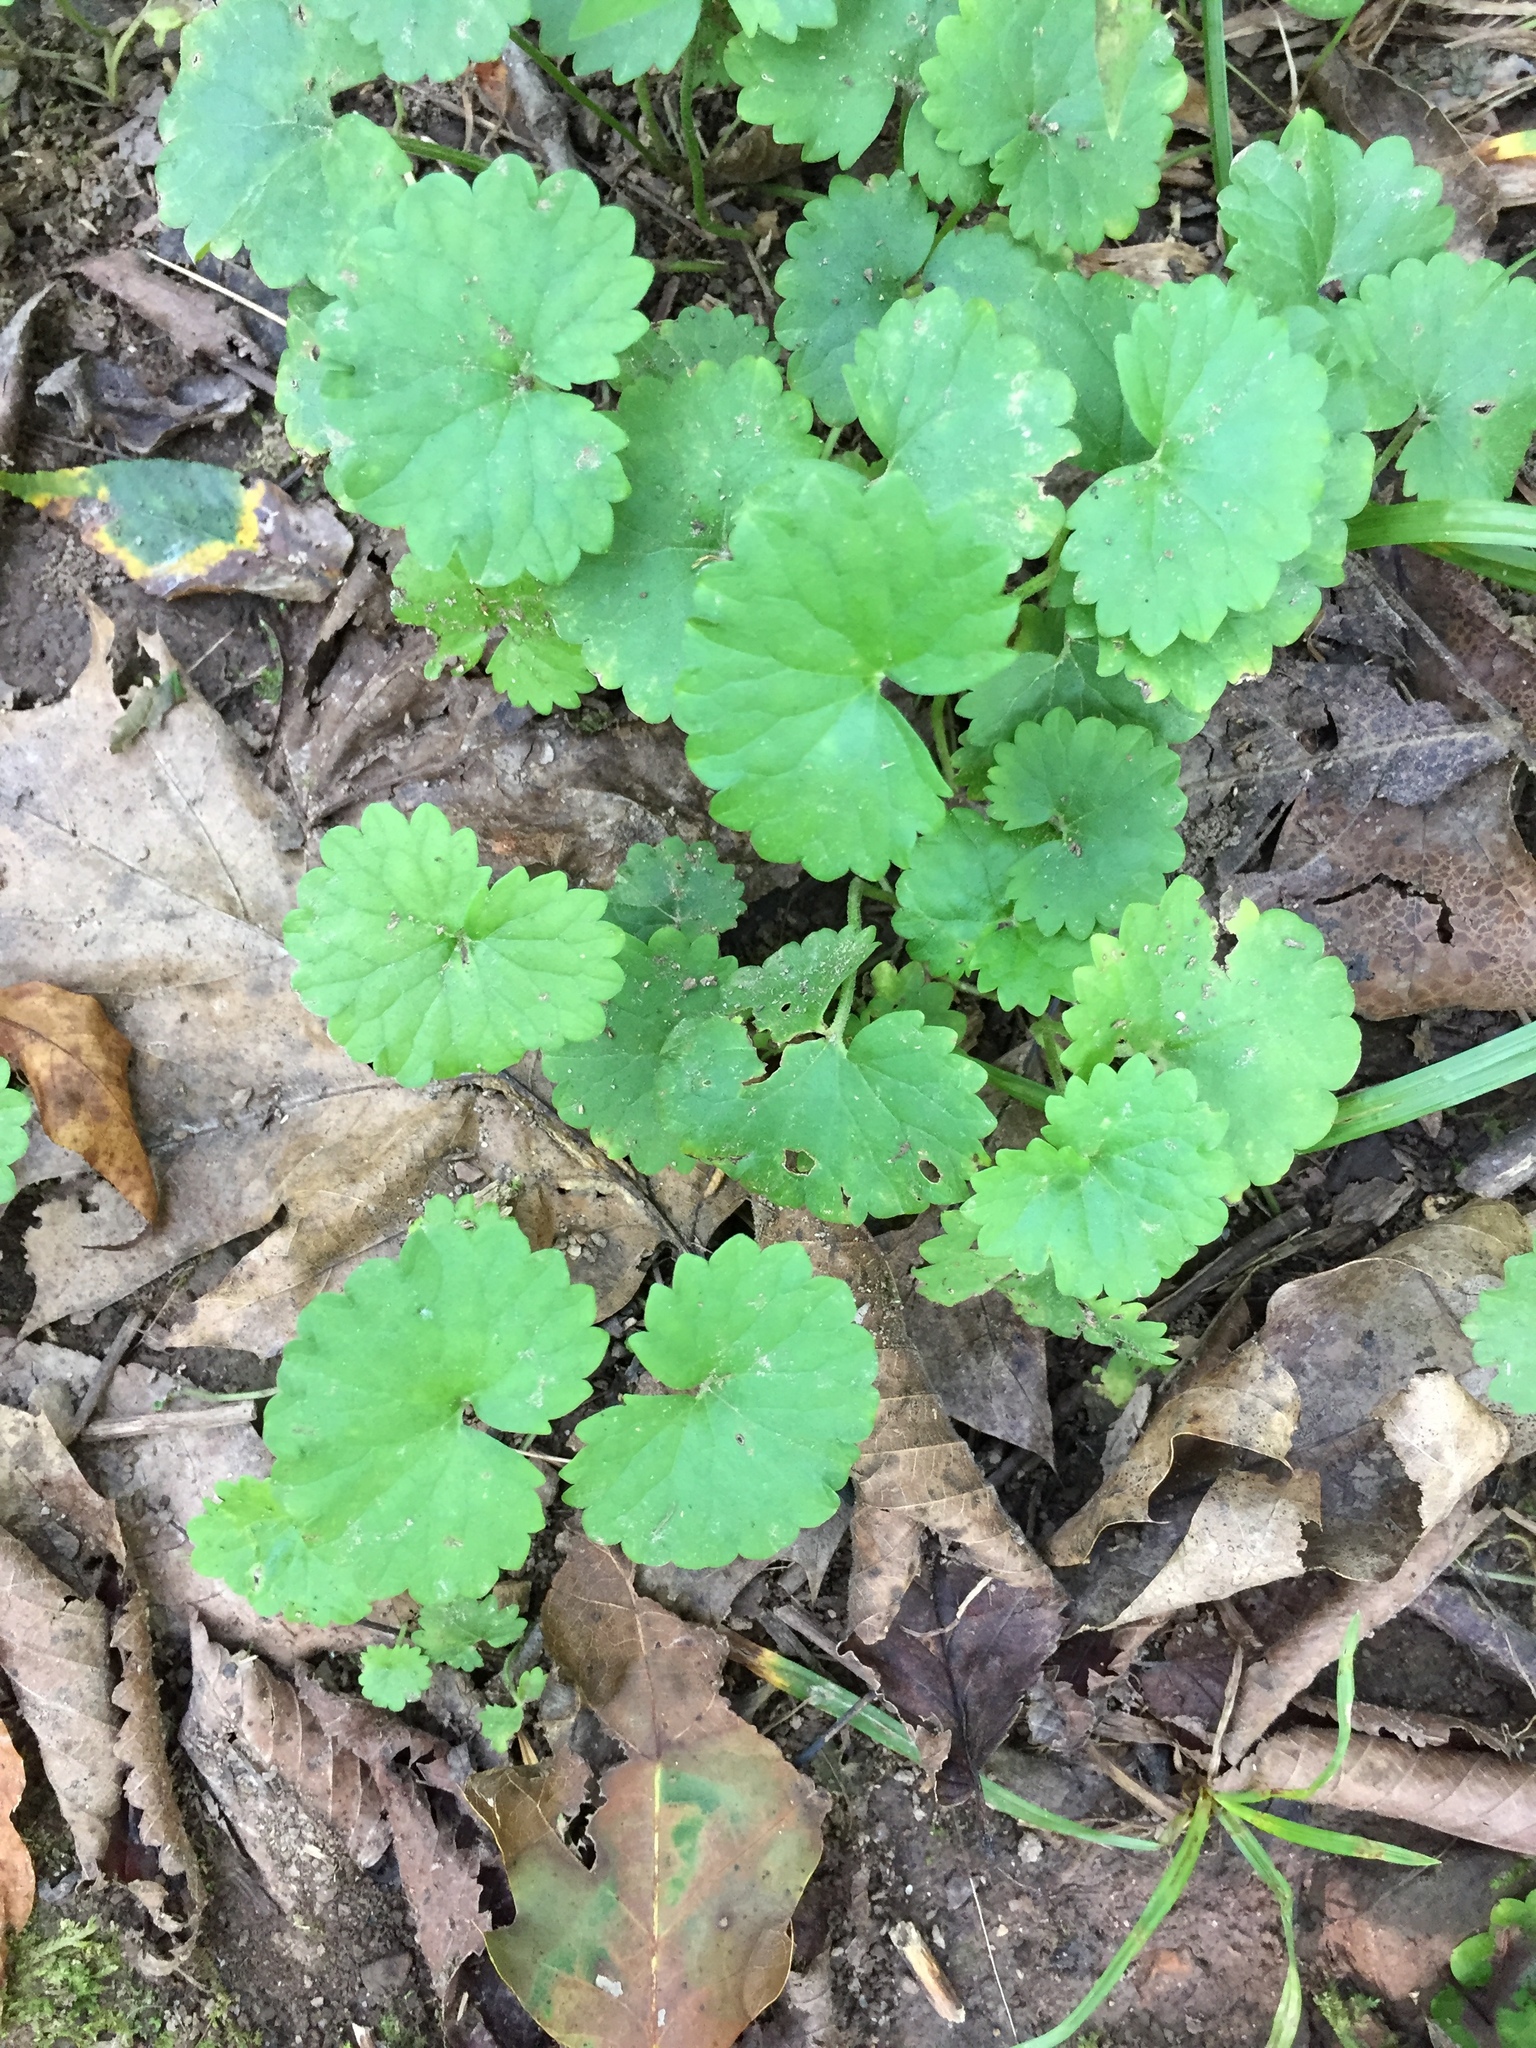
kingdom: Plantae
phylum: Tracheophyta
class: Magnoliopsida
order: Lamiales
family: Lamiaceae
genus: Glechoma
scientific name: Glechoma hederacea
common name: Ground ivy
